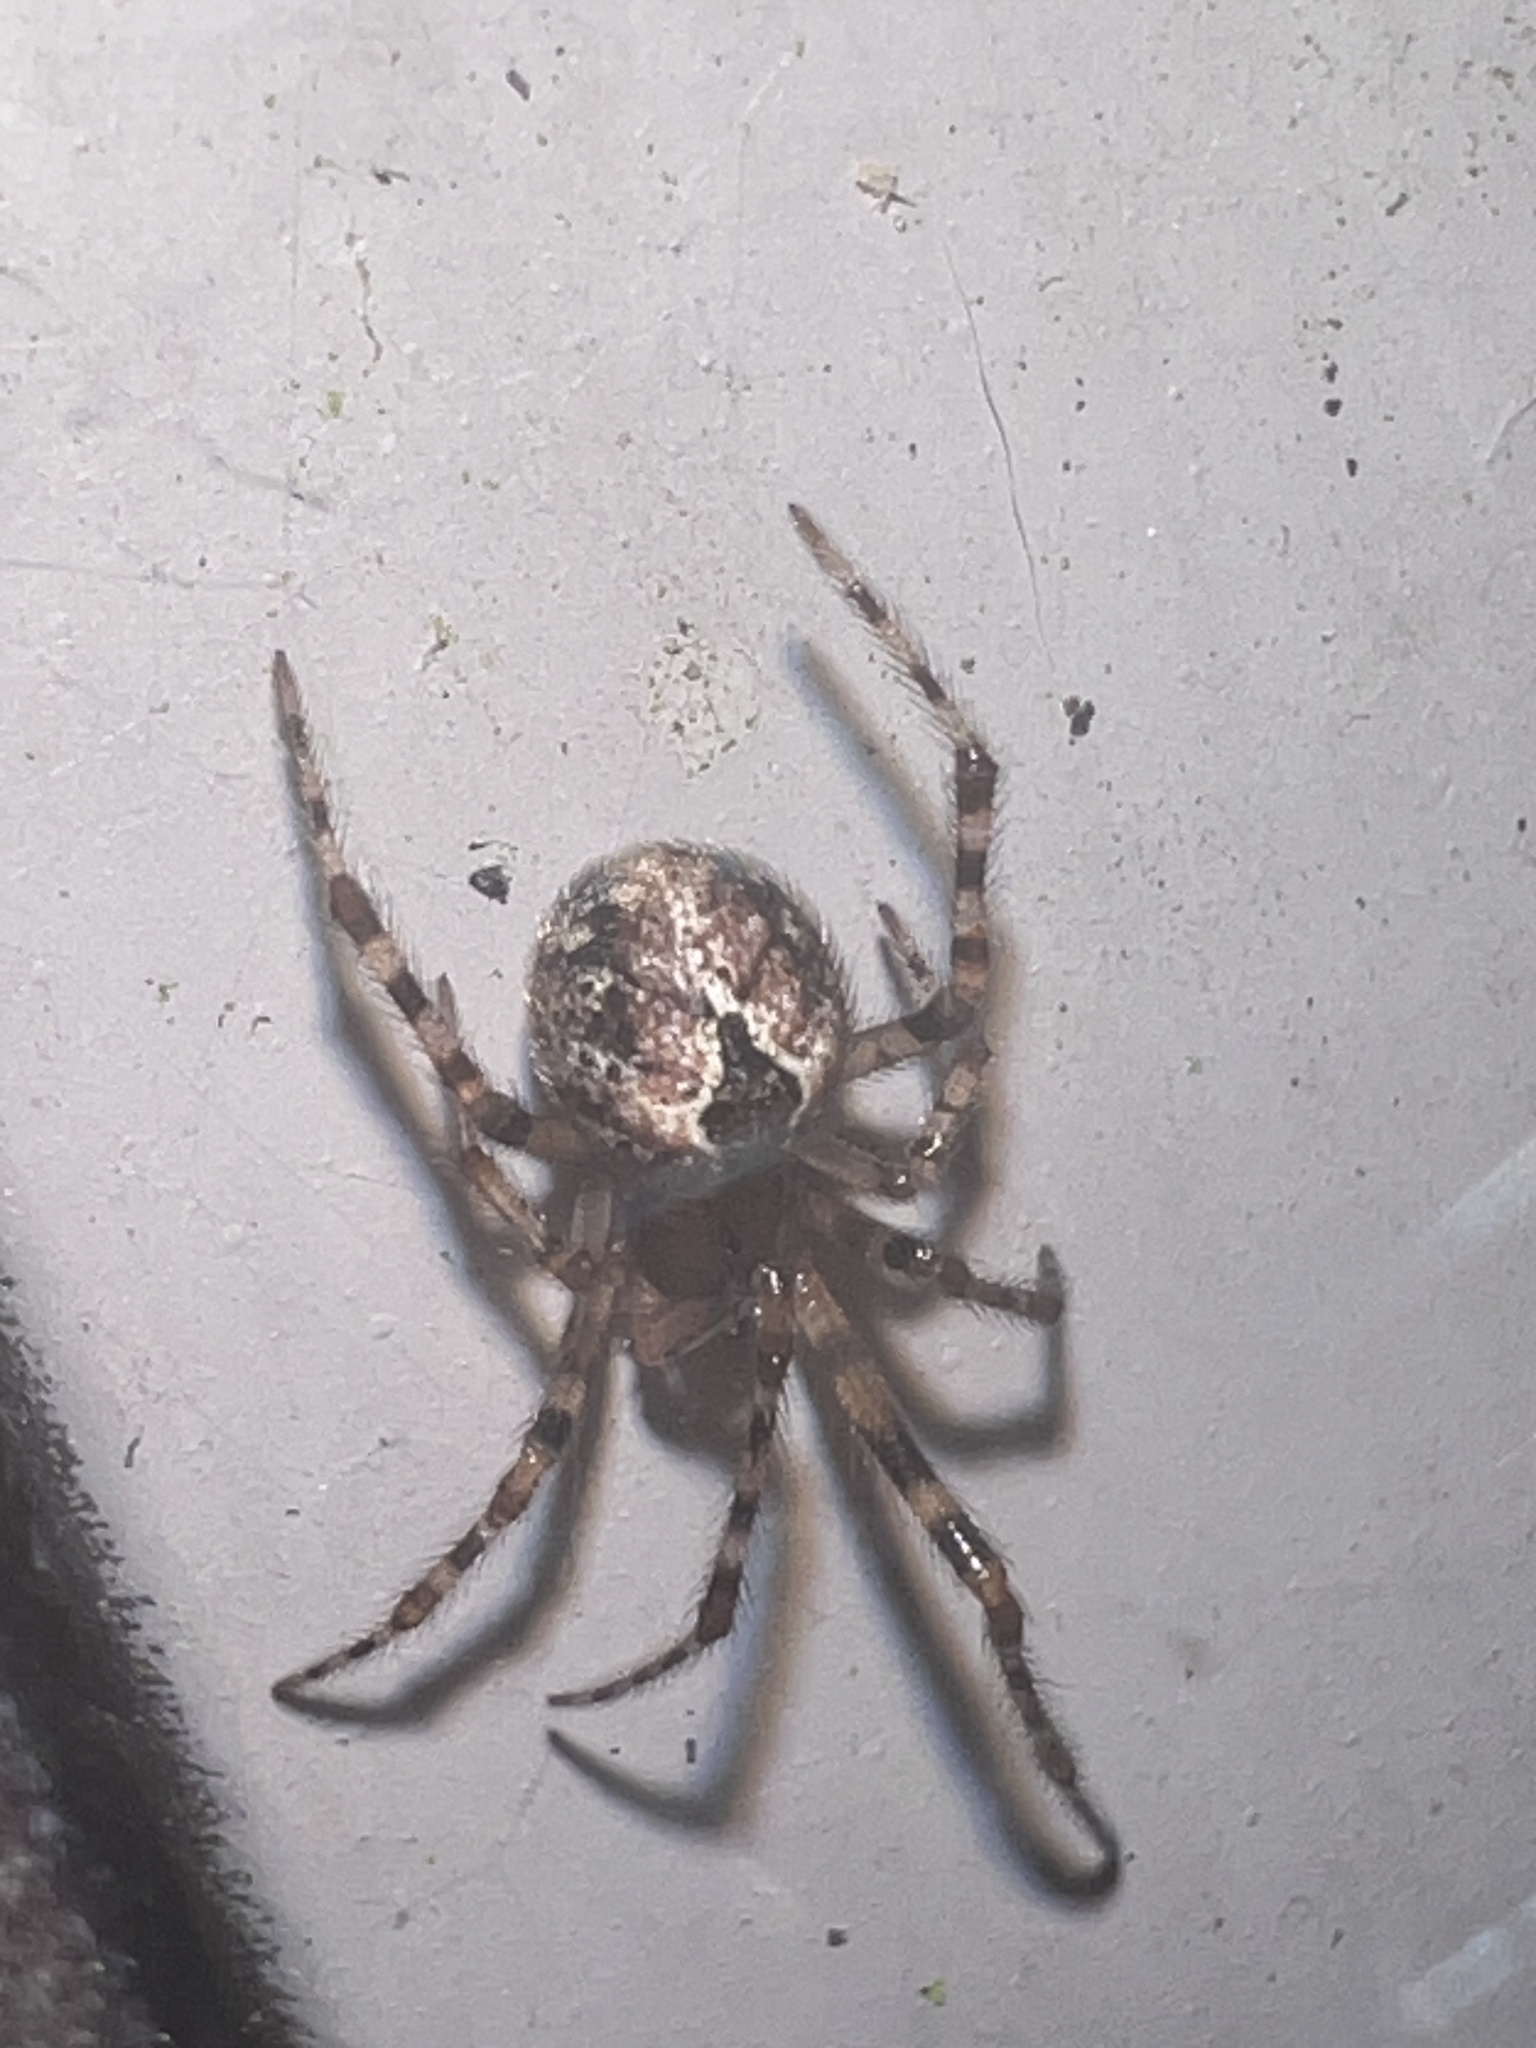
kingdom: Animalia
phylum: Arthropoda
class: Arachnida
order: Araneae
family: Theridiidae
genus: Cryptachaea
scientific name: Cryptachaea veruculata
